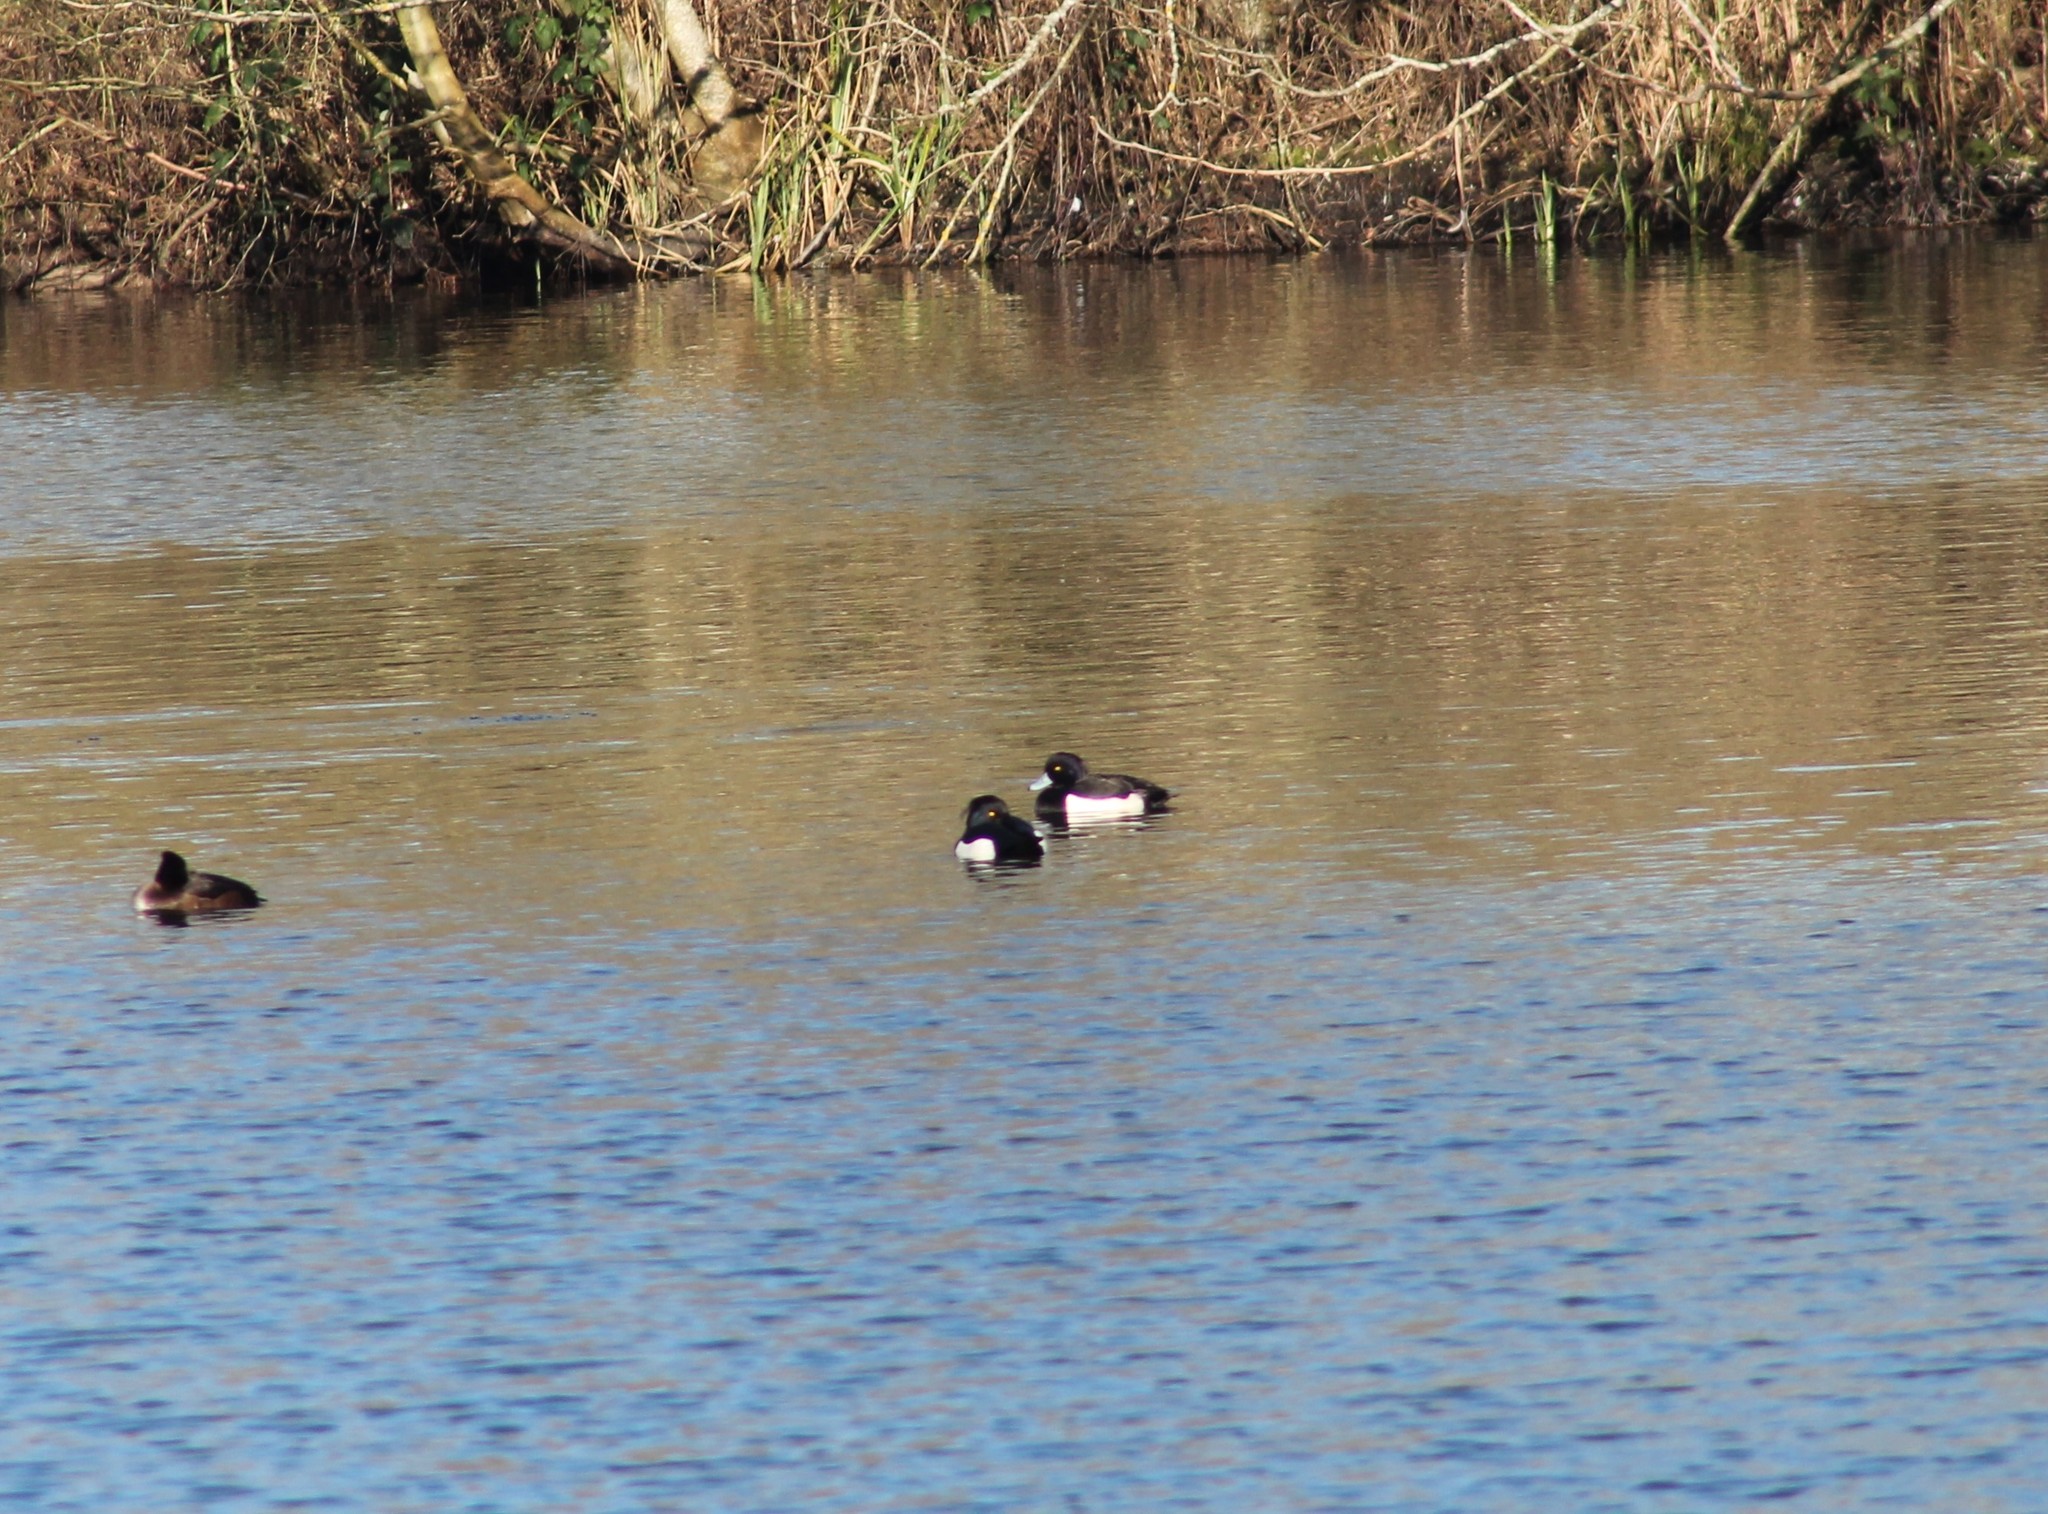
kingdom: Animalia
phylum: Chordata
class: Aves
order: Anseriformes
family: Anatidae
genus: Aythya
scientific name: Aythya fuligula
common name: Tufted duck
